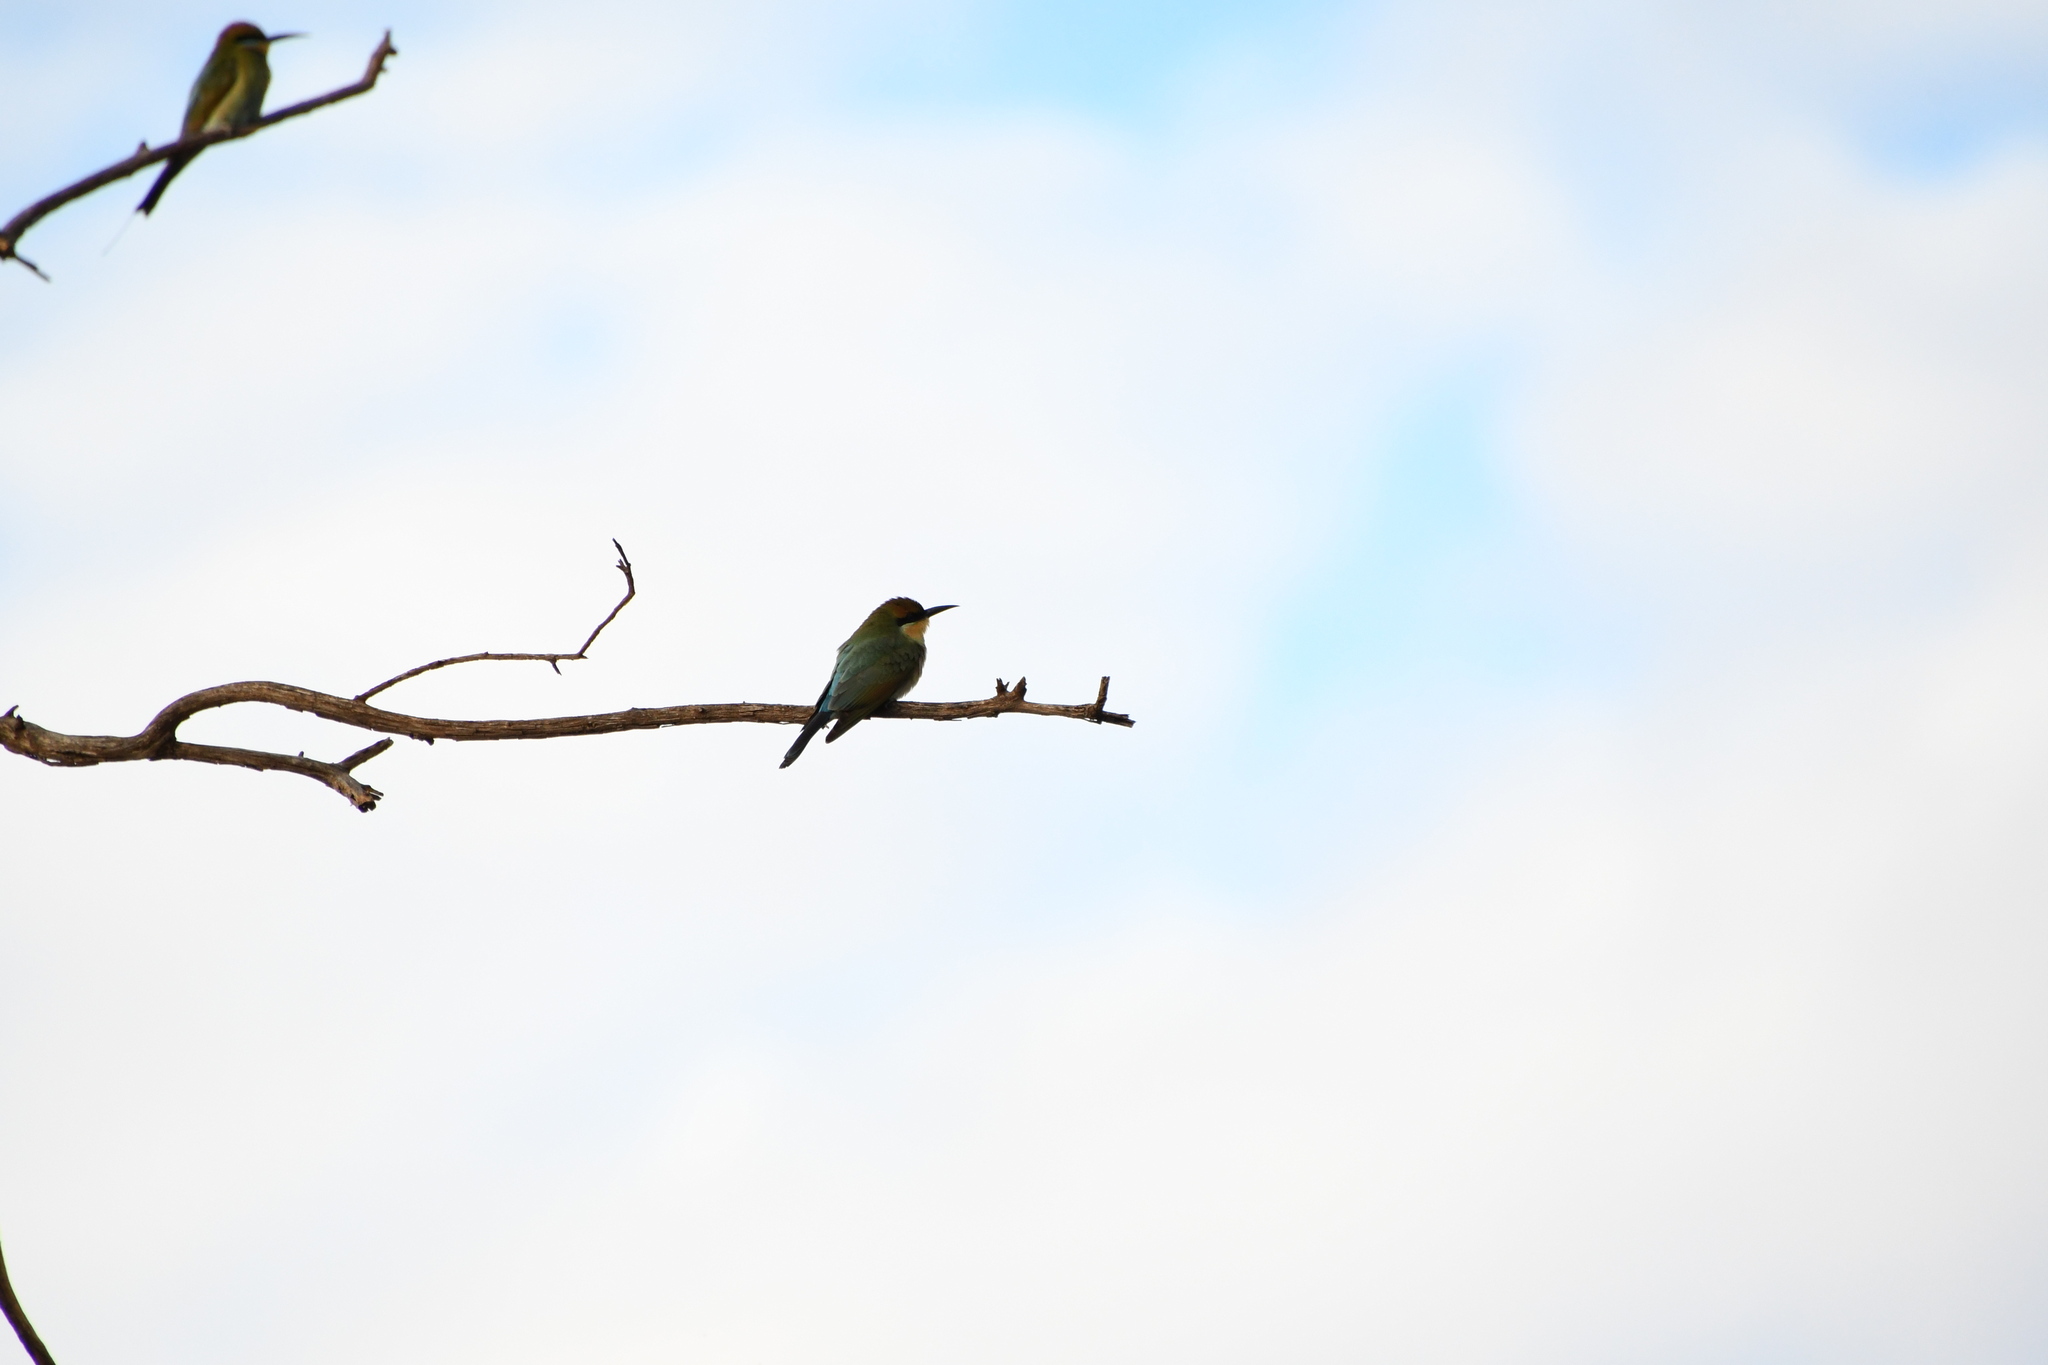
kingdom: Animalia
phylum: Chordata
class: Aves
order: Coraciiformes
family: Meropidae
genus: Merops
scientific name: Merops ornatus
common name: Rainbow bee-eater
